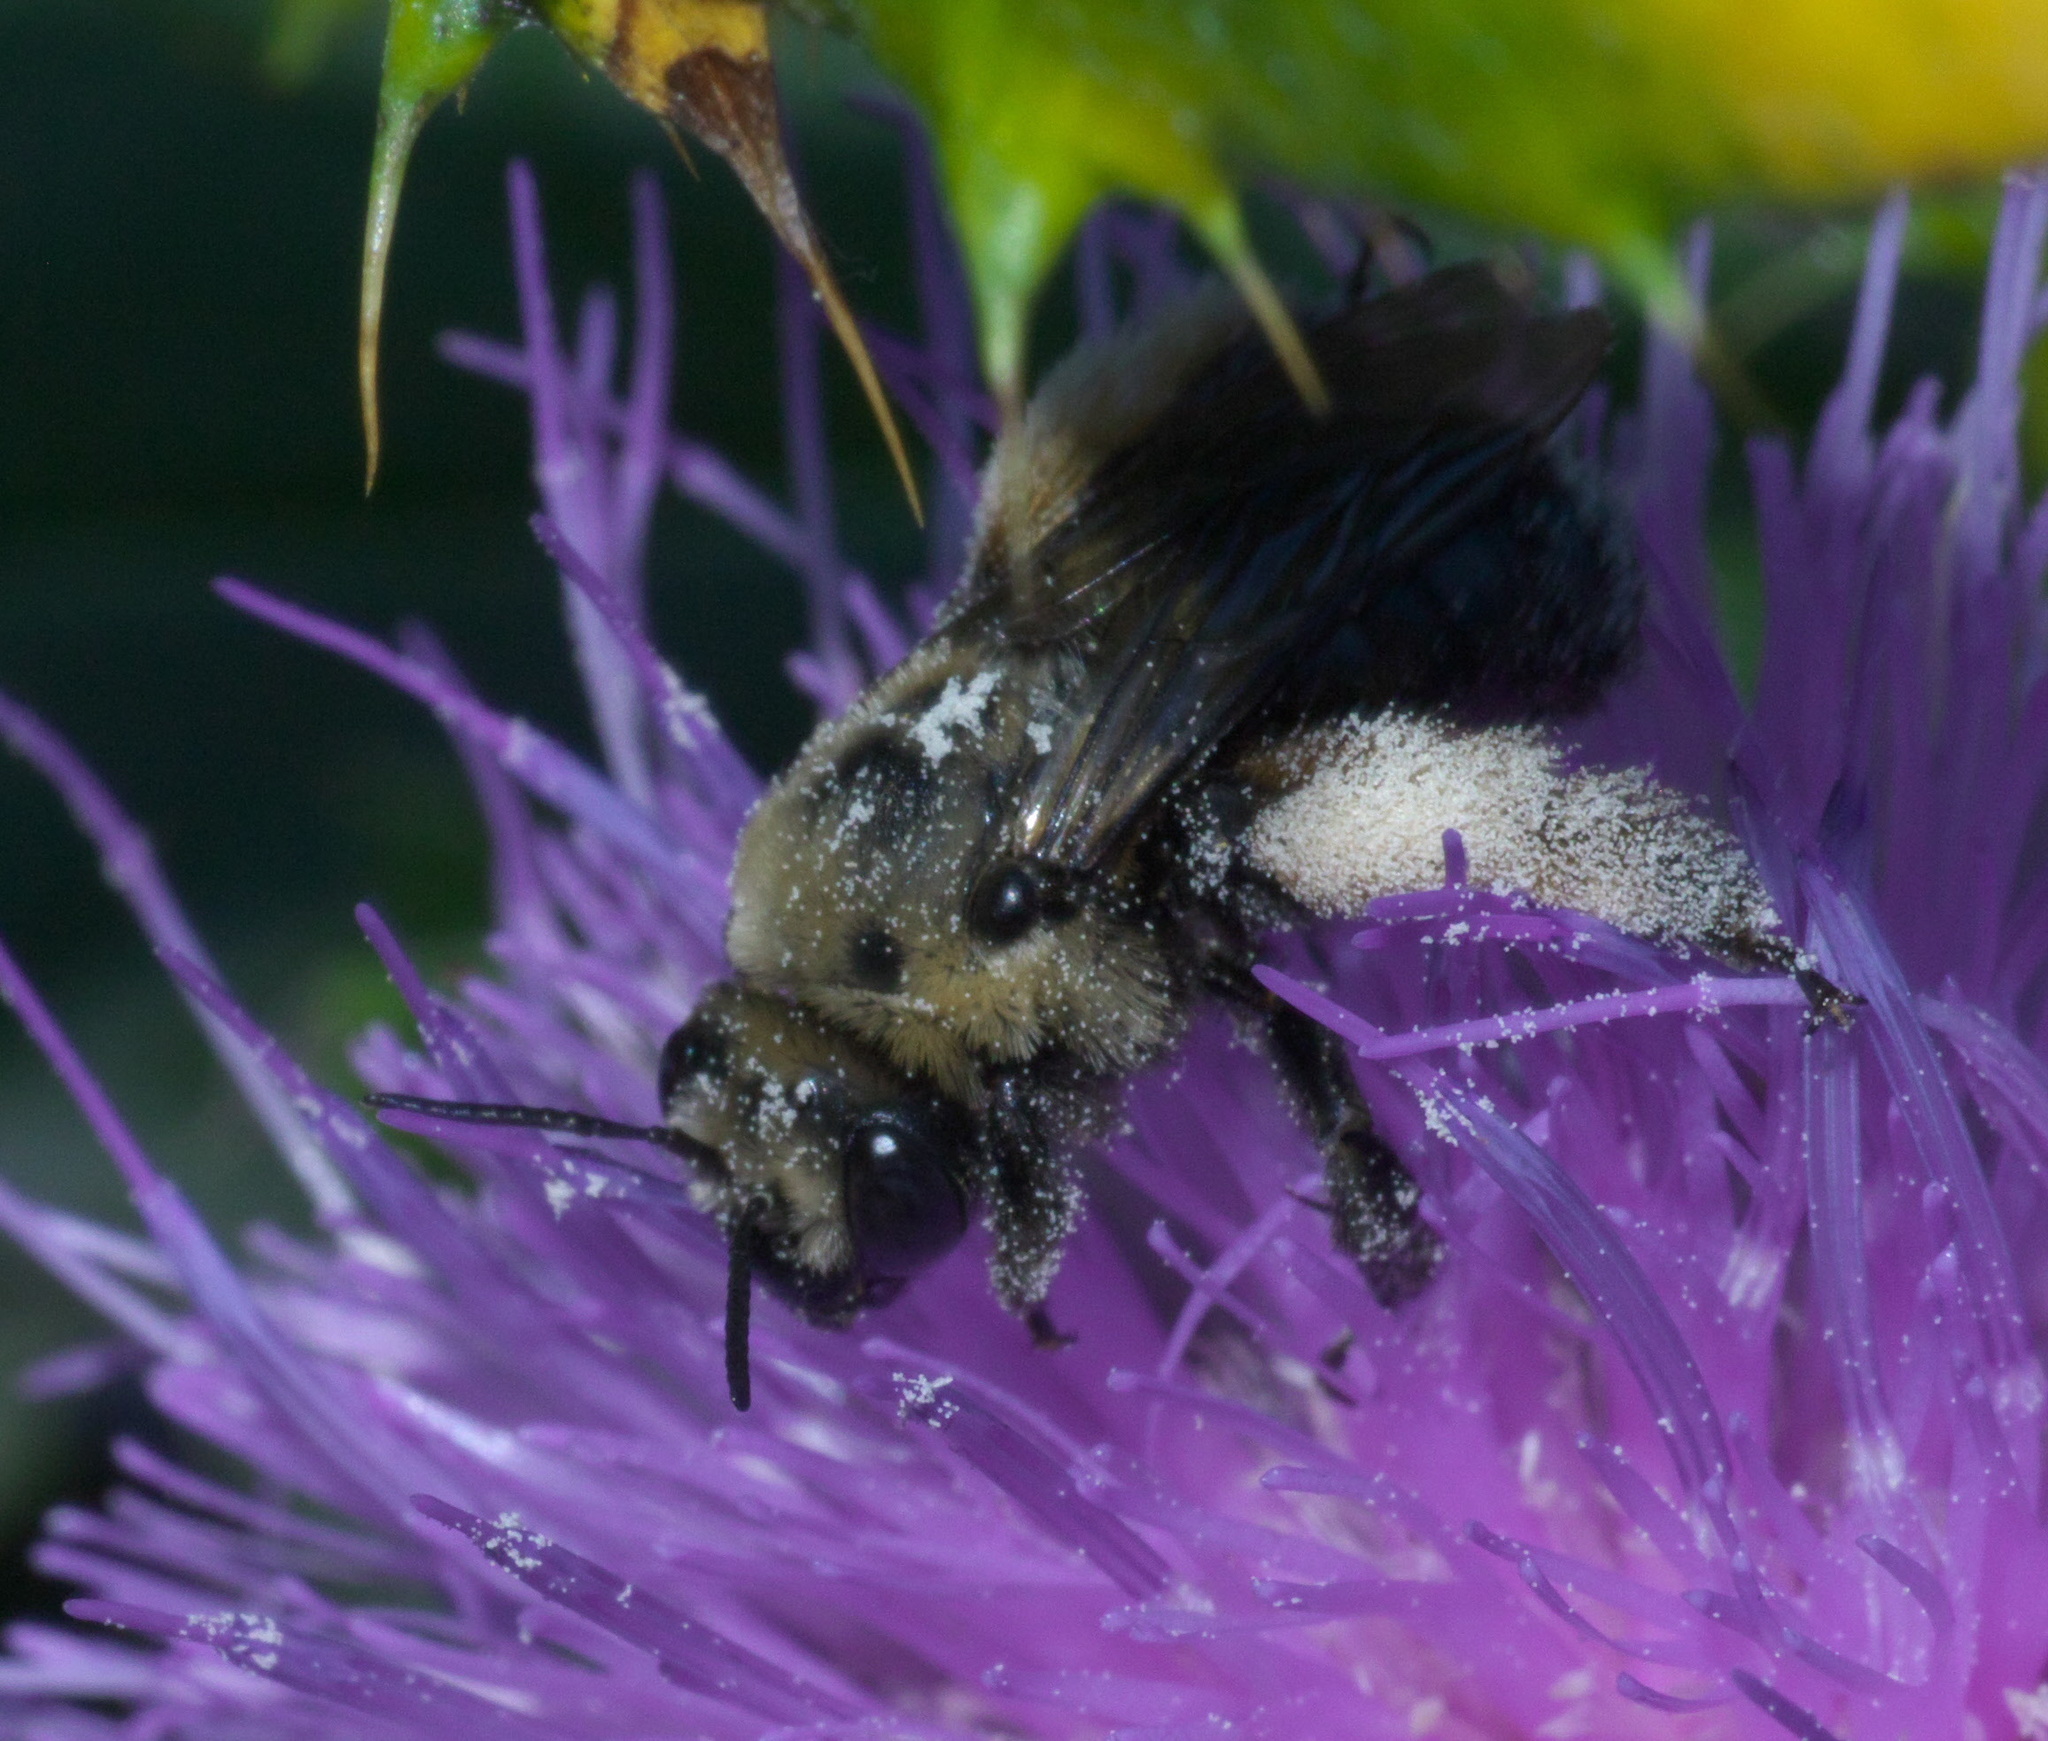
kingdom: Animalia
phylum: Arthropoda
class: Insecta
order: Hymenoptera
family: Apidae
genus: Melissodes
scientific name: Melissodes desponsus
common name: Thistle long-horned bee
